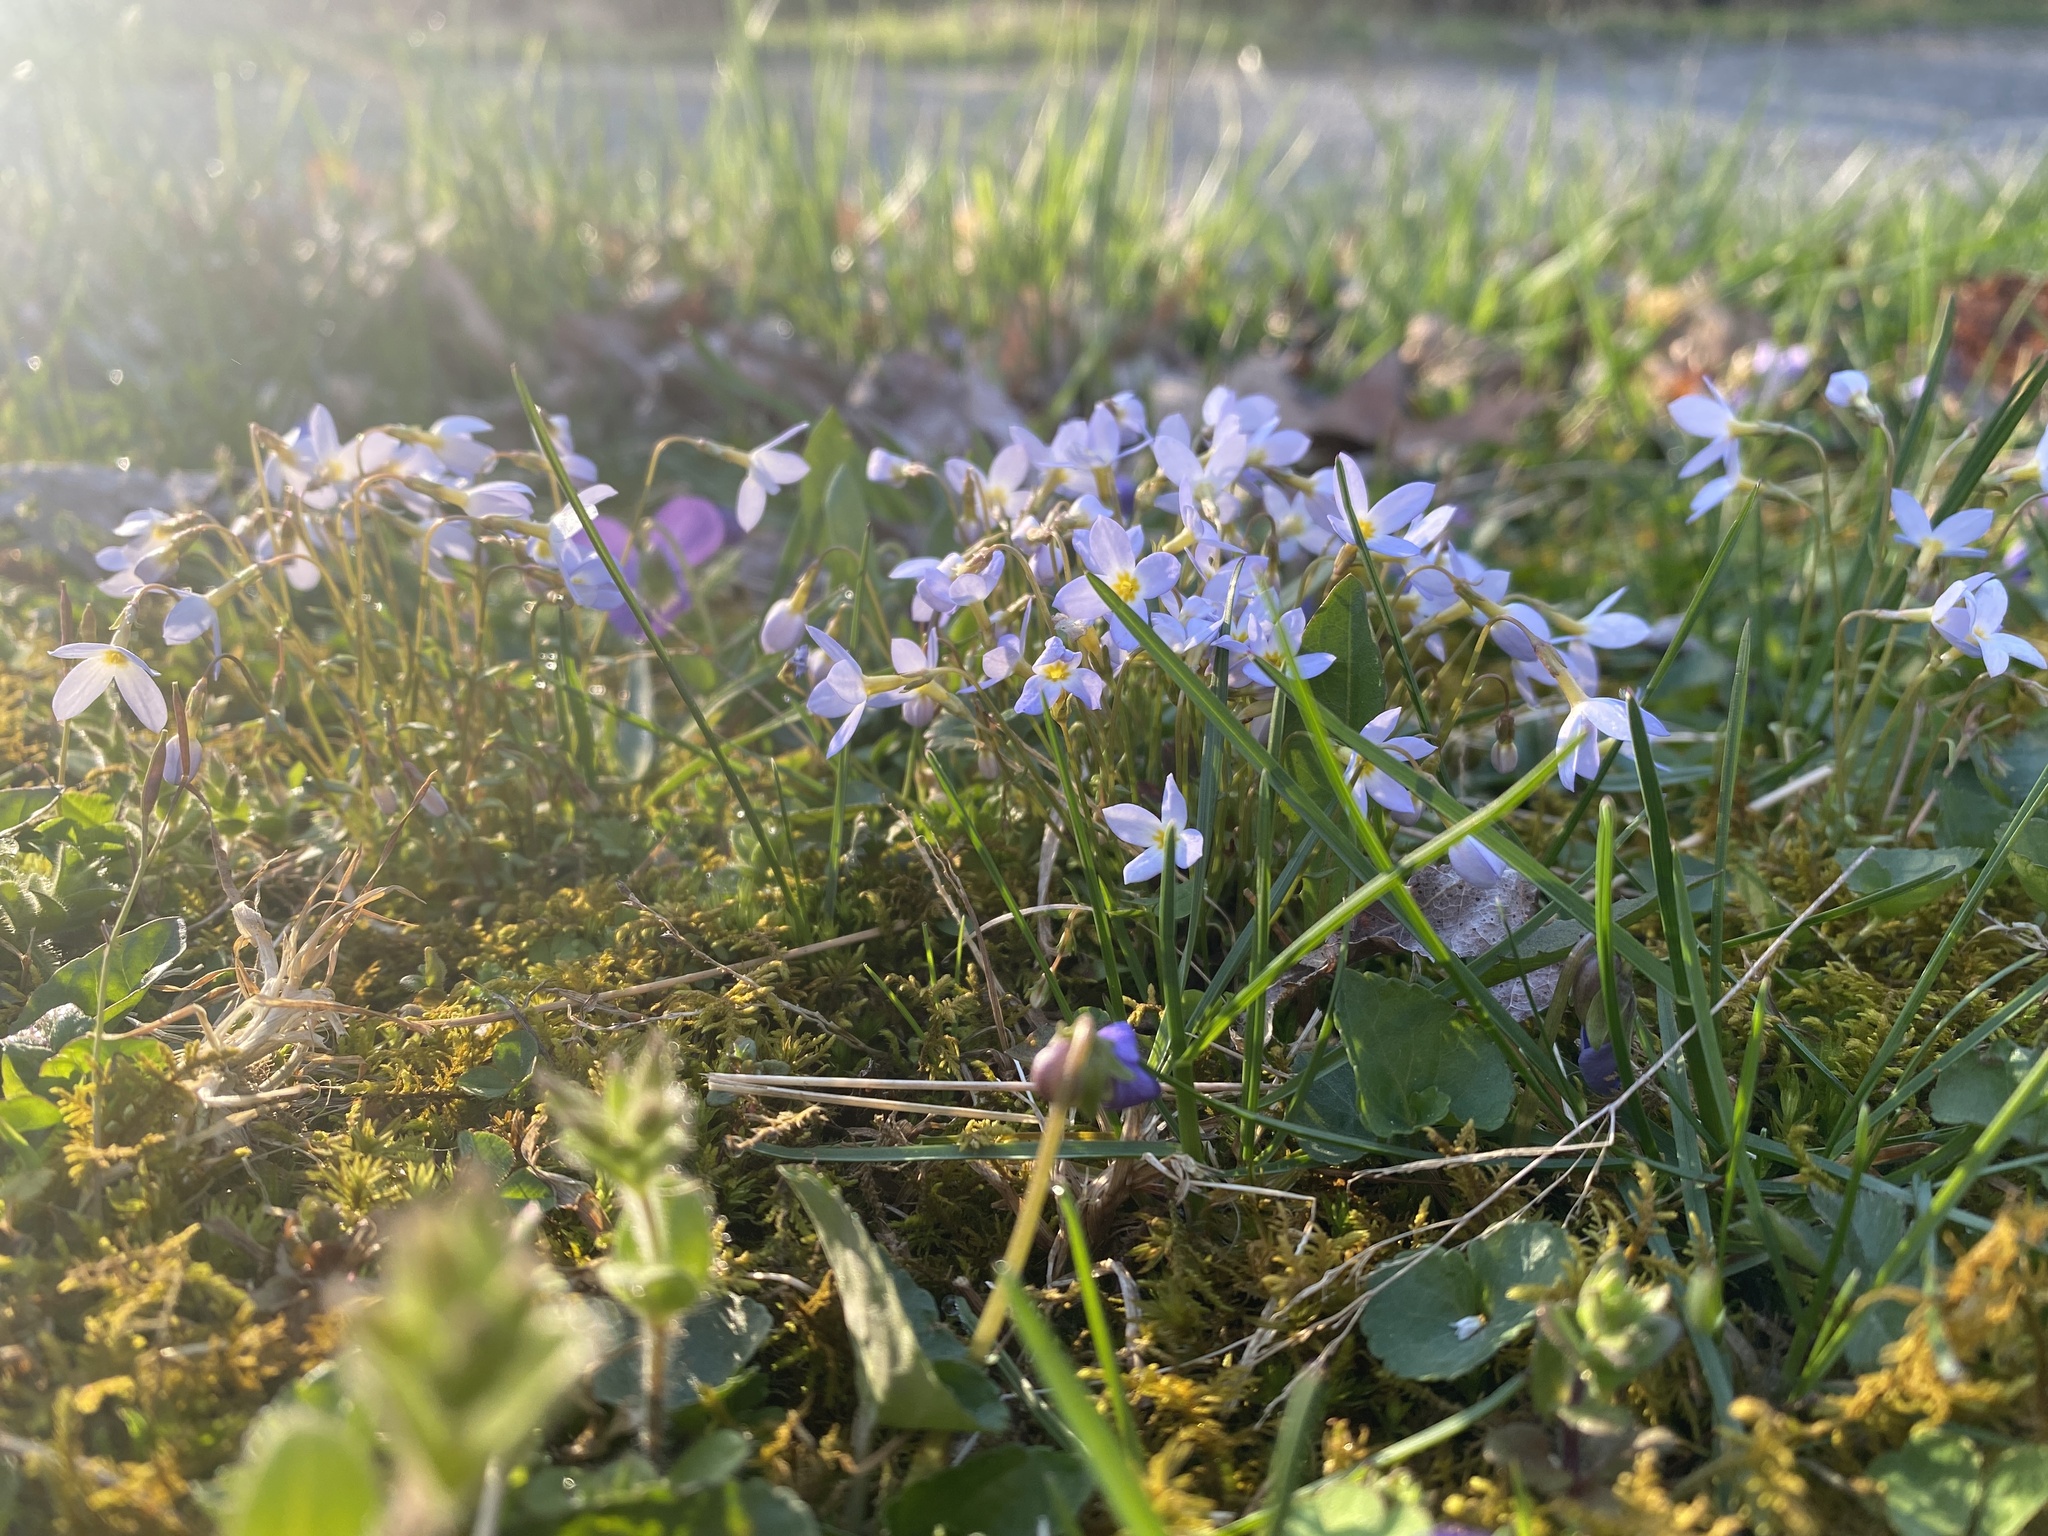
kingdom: Plantae
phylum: Tracheophyta
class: Magnoliopsida
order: Gentianales
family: Rubiaceae
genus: Houstonia
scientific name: Houstonia caerulea
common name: Bluets
